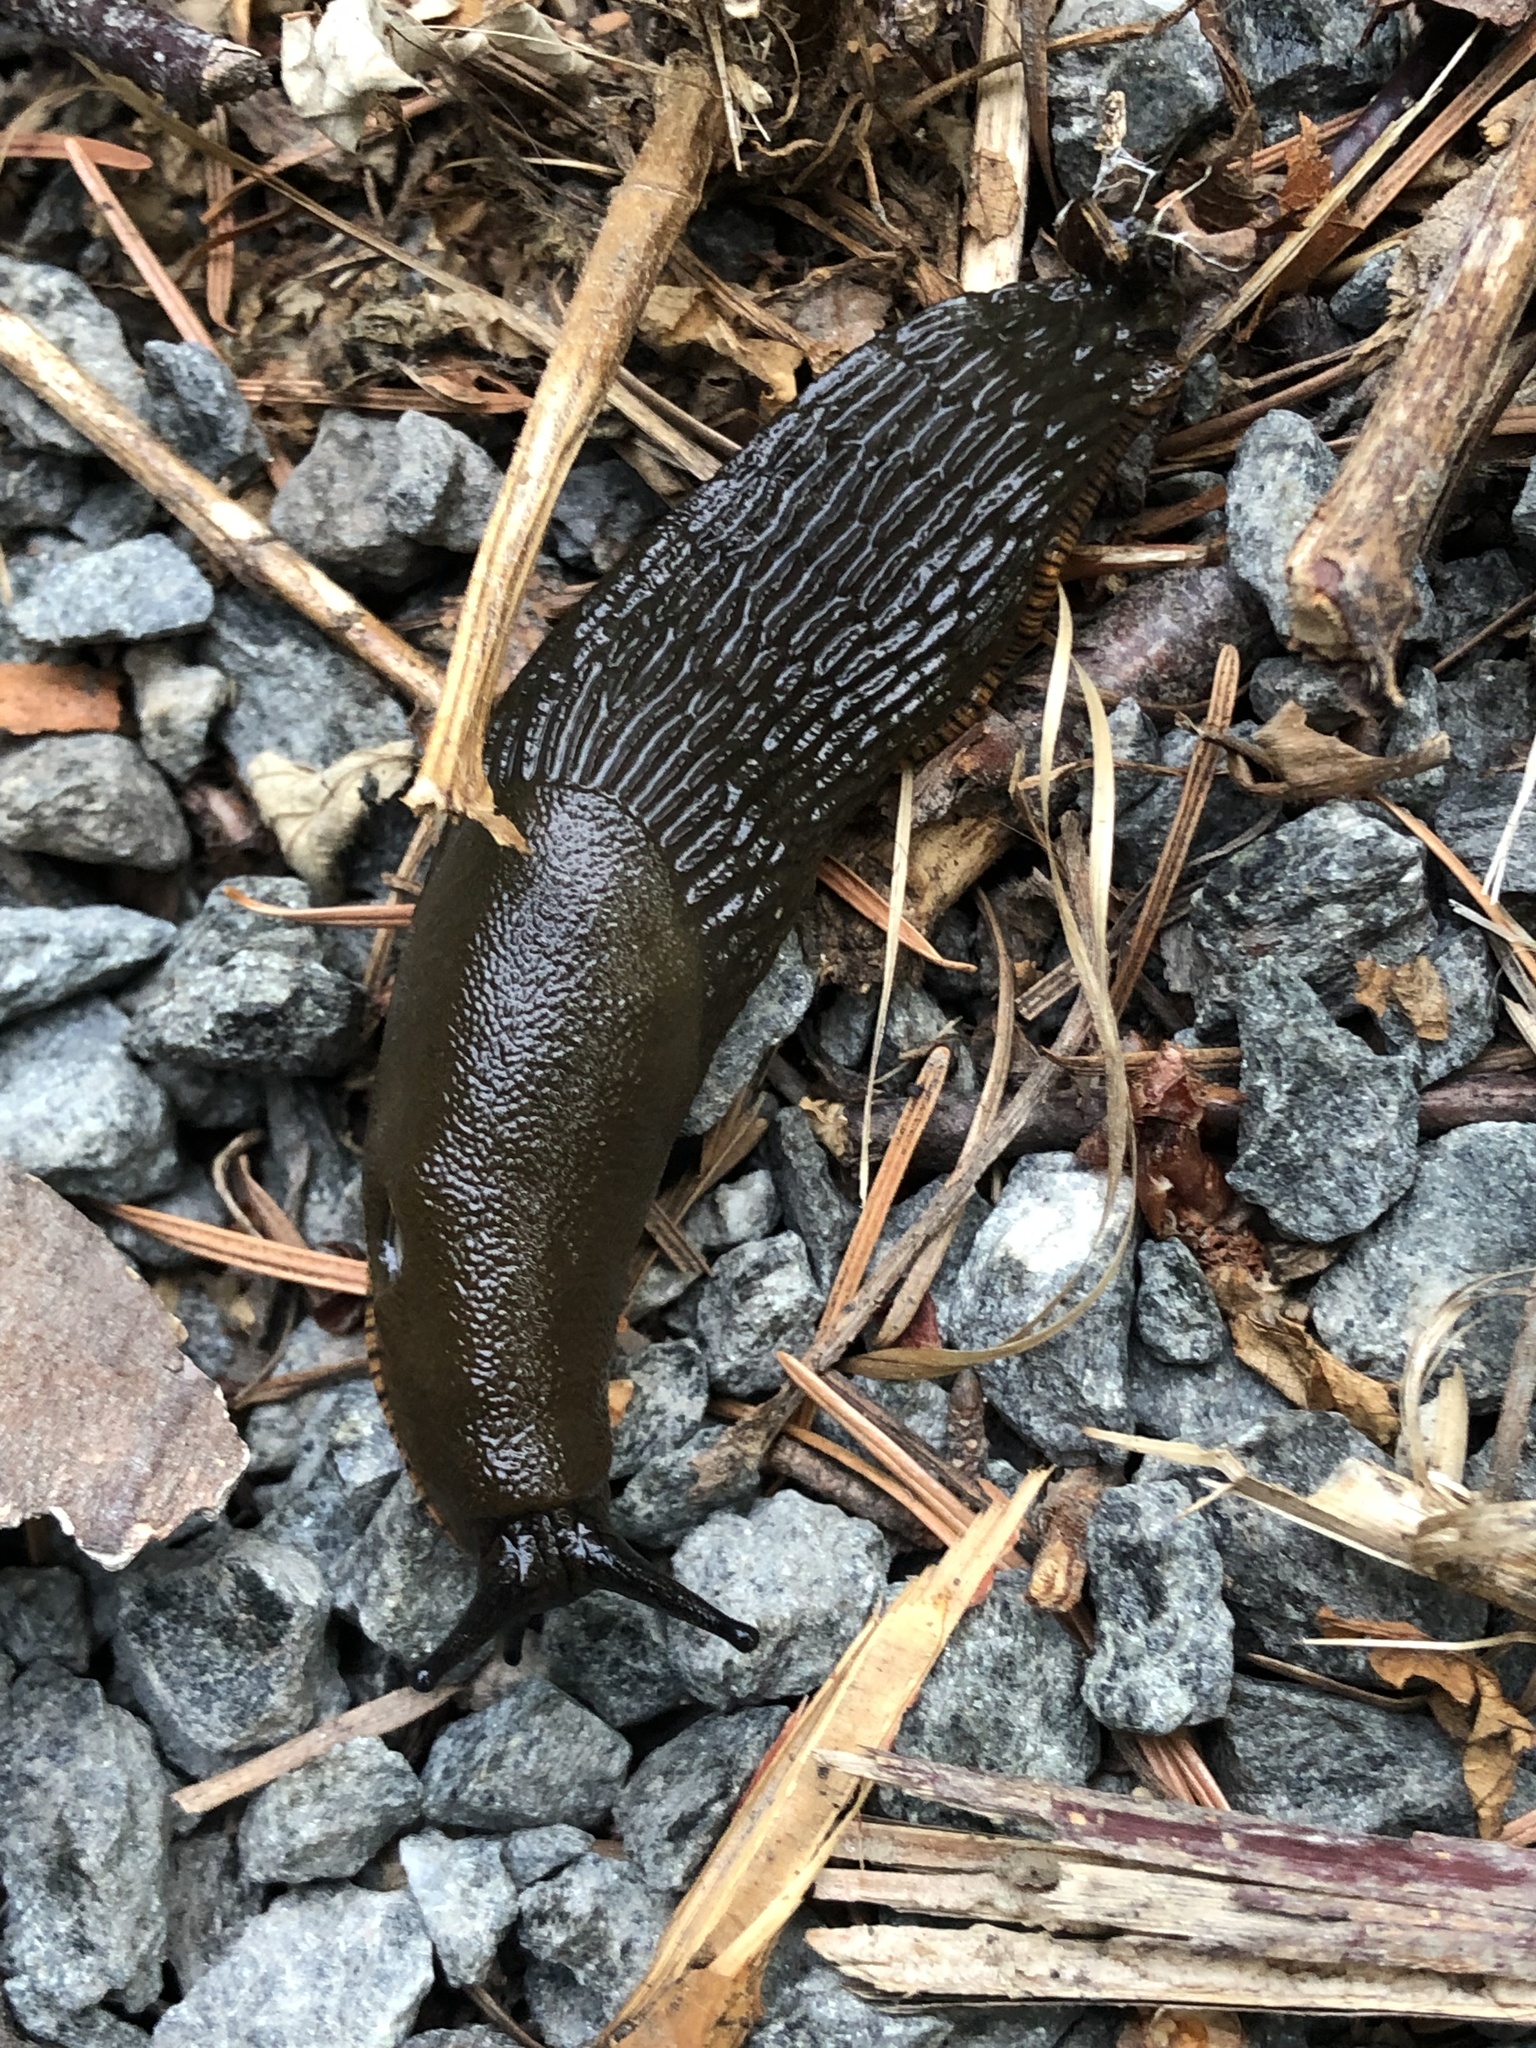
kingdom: Animalia
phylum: Mollusca
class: Gastropoda
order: Stylommatophora
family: Arionidae
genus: Arion
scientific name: Arion rufus
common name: Chocolate arion
